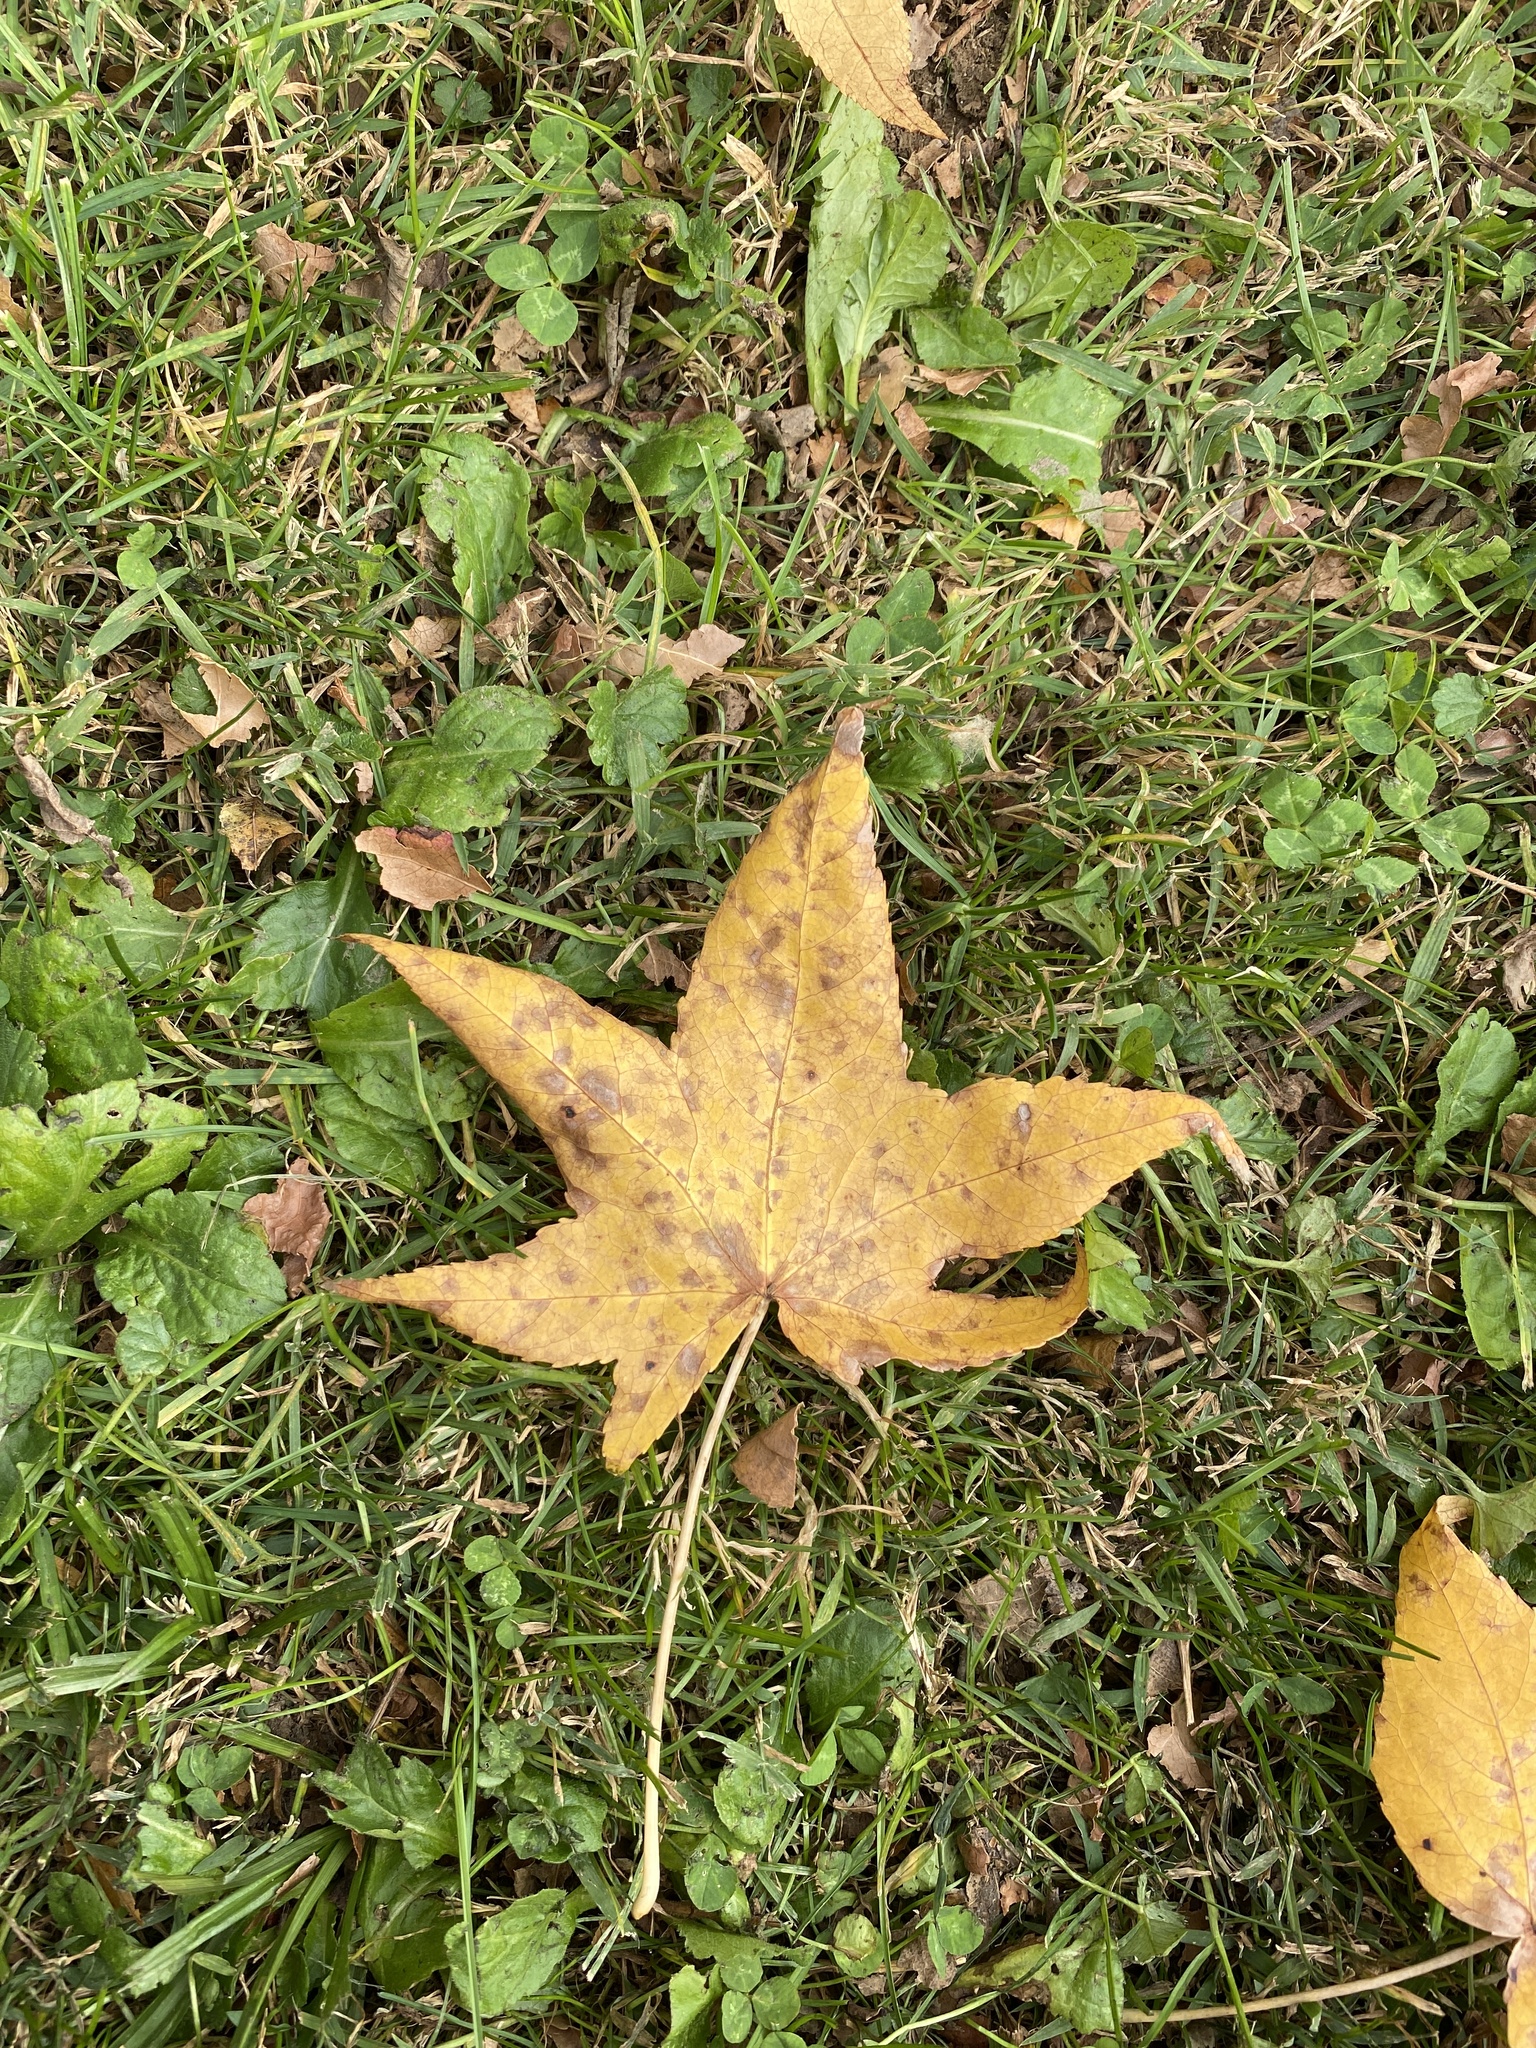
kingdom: Plantae
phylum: Tracheophyta
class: Magnoliopsida
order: Saxifragales
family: Altingiaceae
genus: Liquidambar
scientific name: Liquidambar styraciflua
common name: Sweet gum
